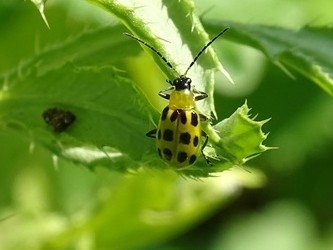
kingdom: Animalia
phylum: Arthropoda
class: Insecta
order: Coleoptera
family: Chrysomelidae
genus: Diabrotica
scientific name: Diabrotica undecimpunctata
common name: Spotted cucumber beetle
